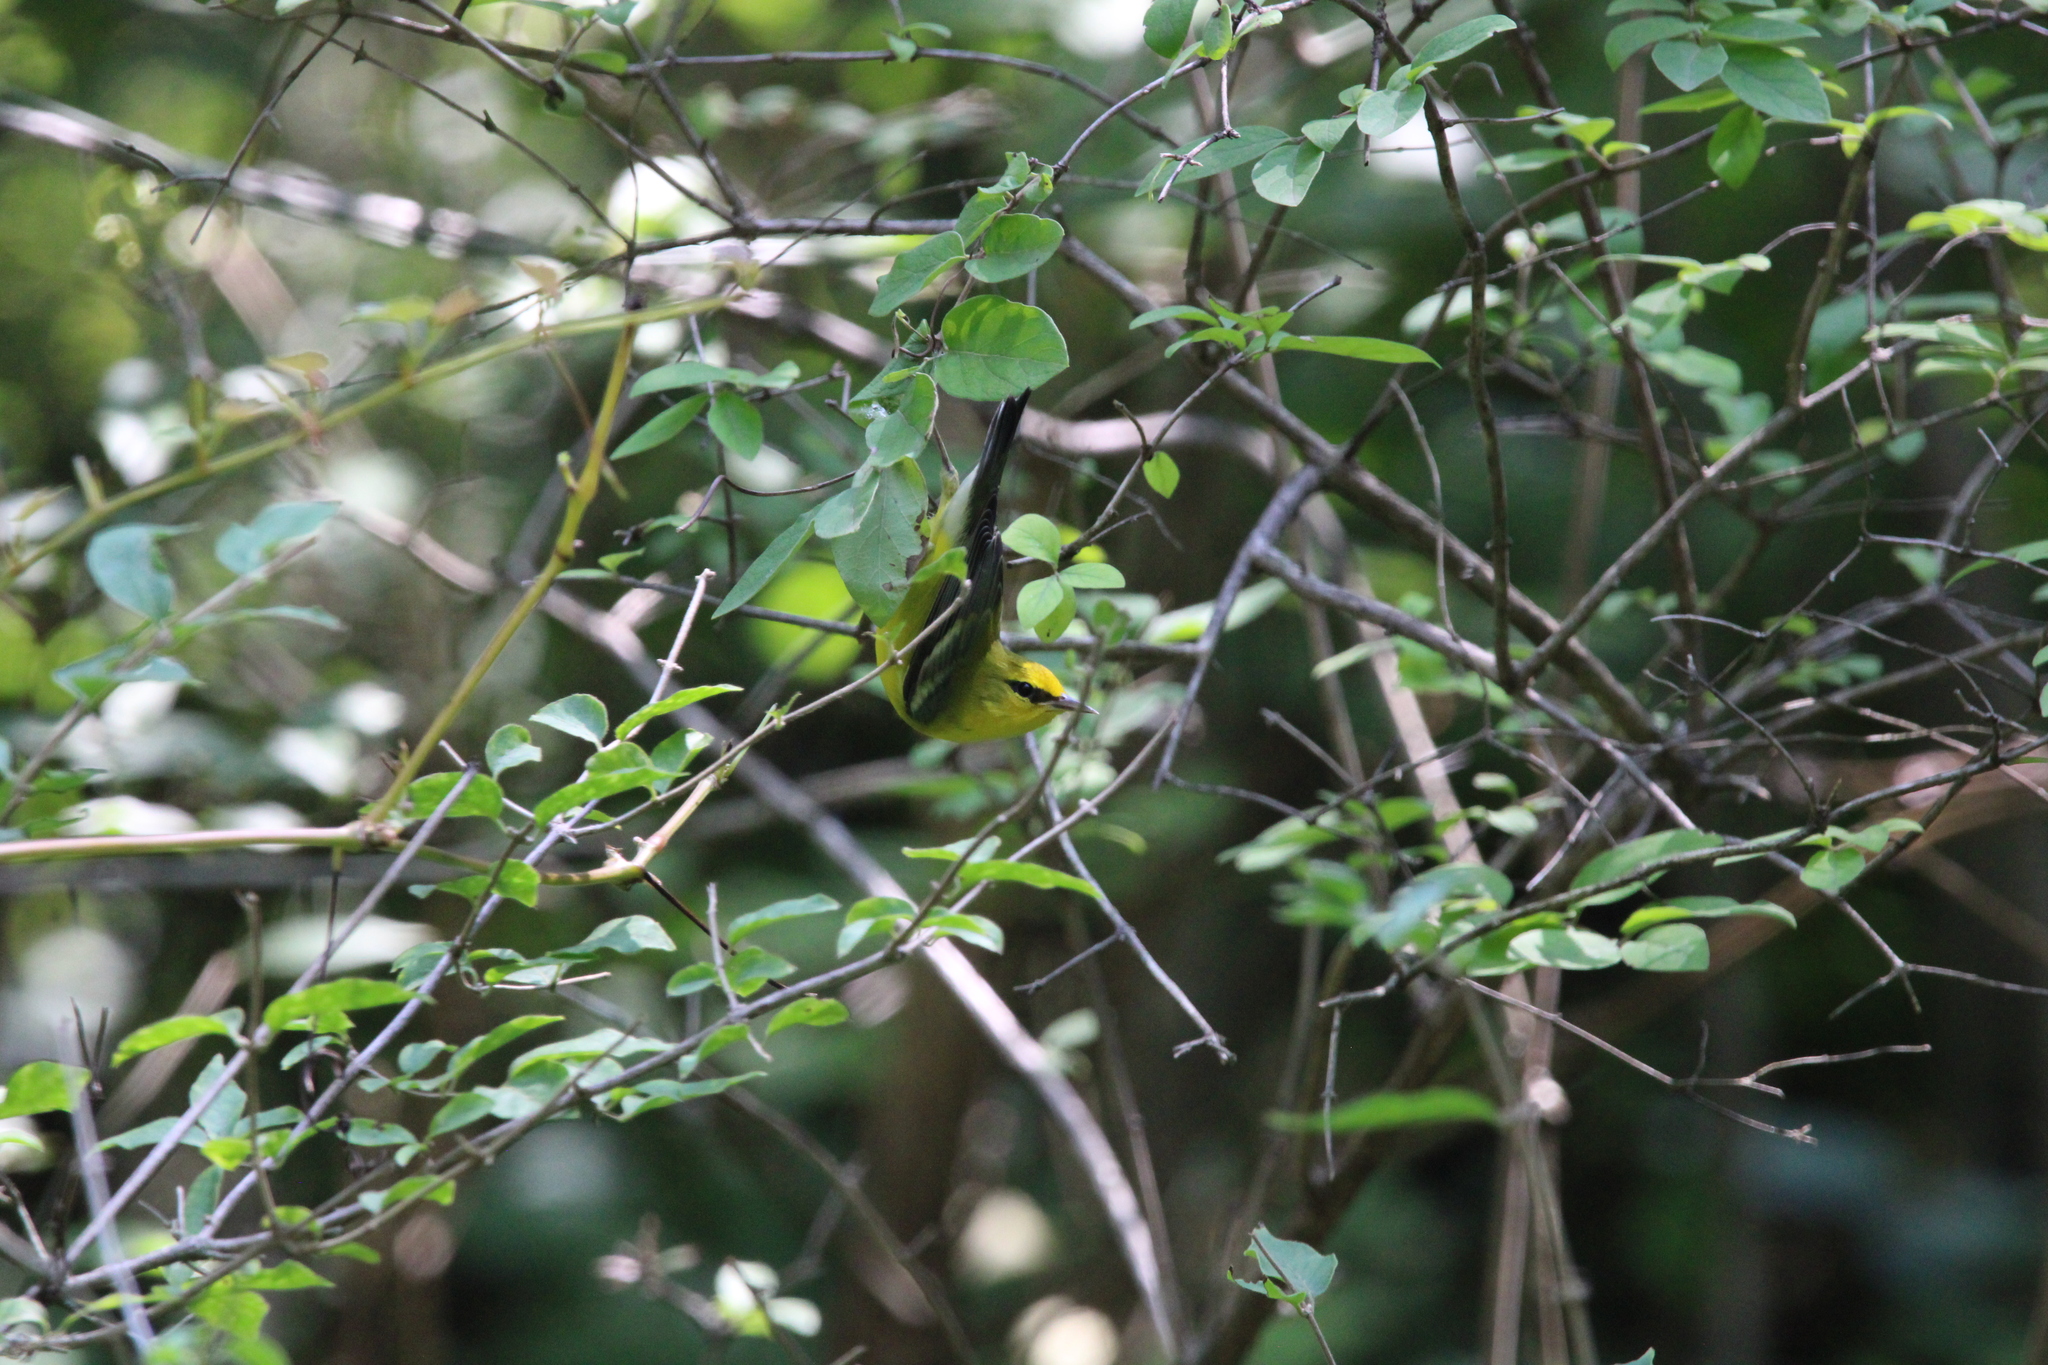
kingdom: Animalia
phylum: Chordata
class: Aves
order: Passeriformes
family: Parulidae
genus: Vermivora
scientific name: Vermivora cyanoptera
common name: Blue-winged warbler
